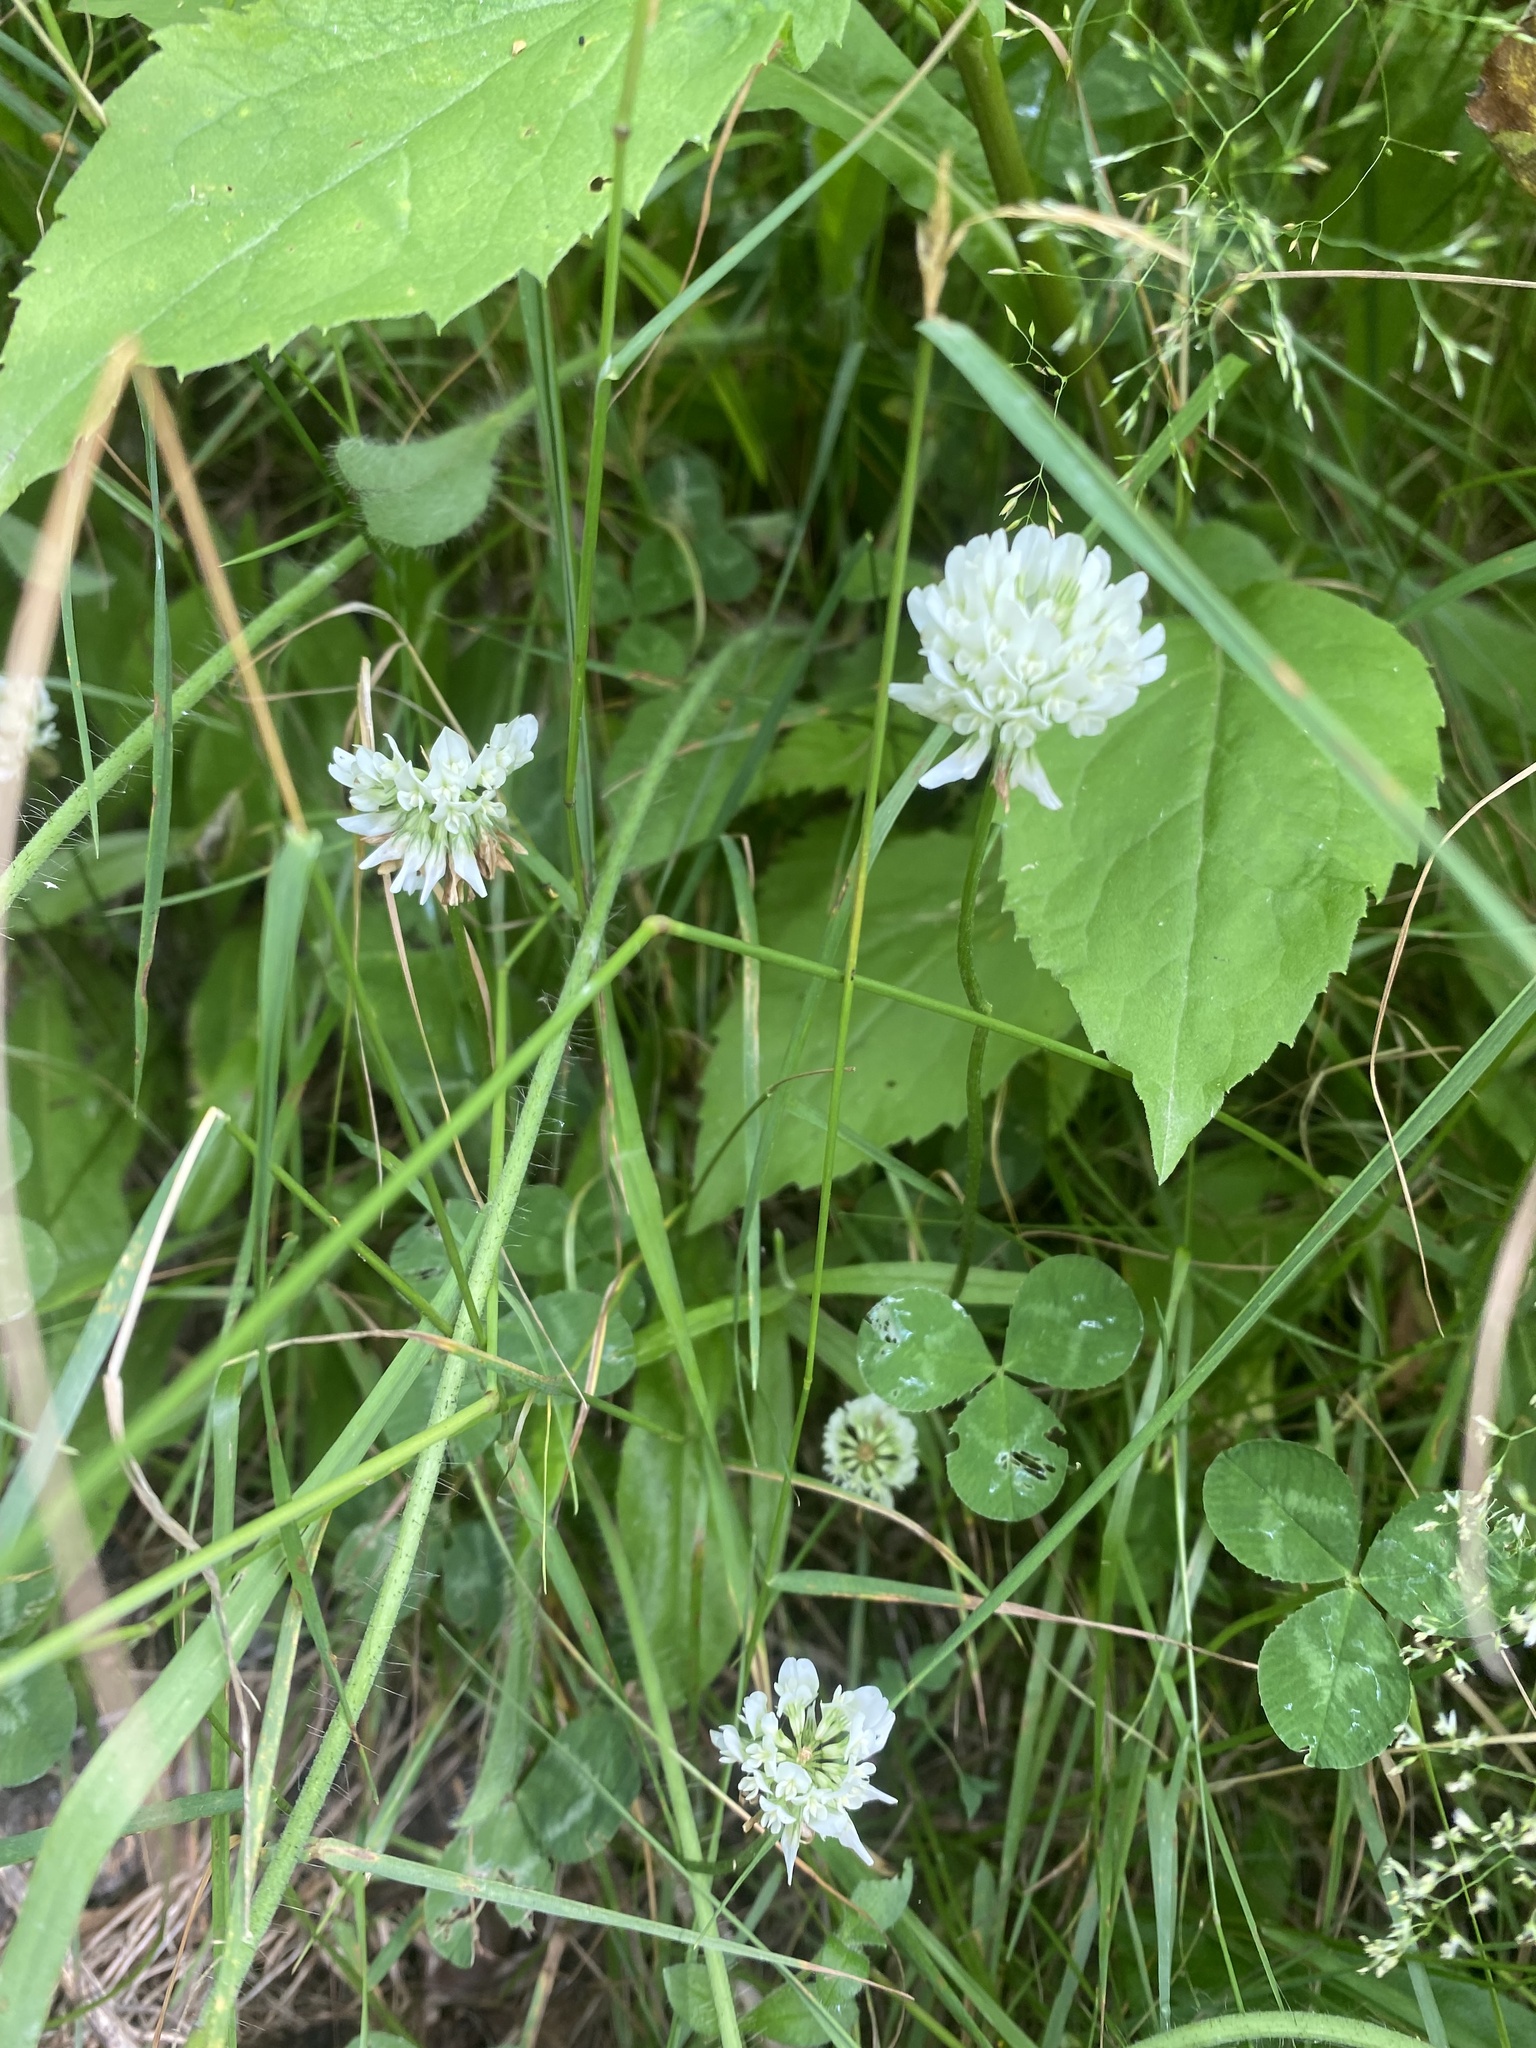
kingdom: Plantae
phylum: Tracheophyta
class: Magnoliopsida
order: Fabales
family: Fabaceae
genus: Trifolium
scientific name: Trifolium repens
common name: White clover
